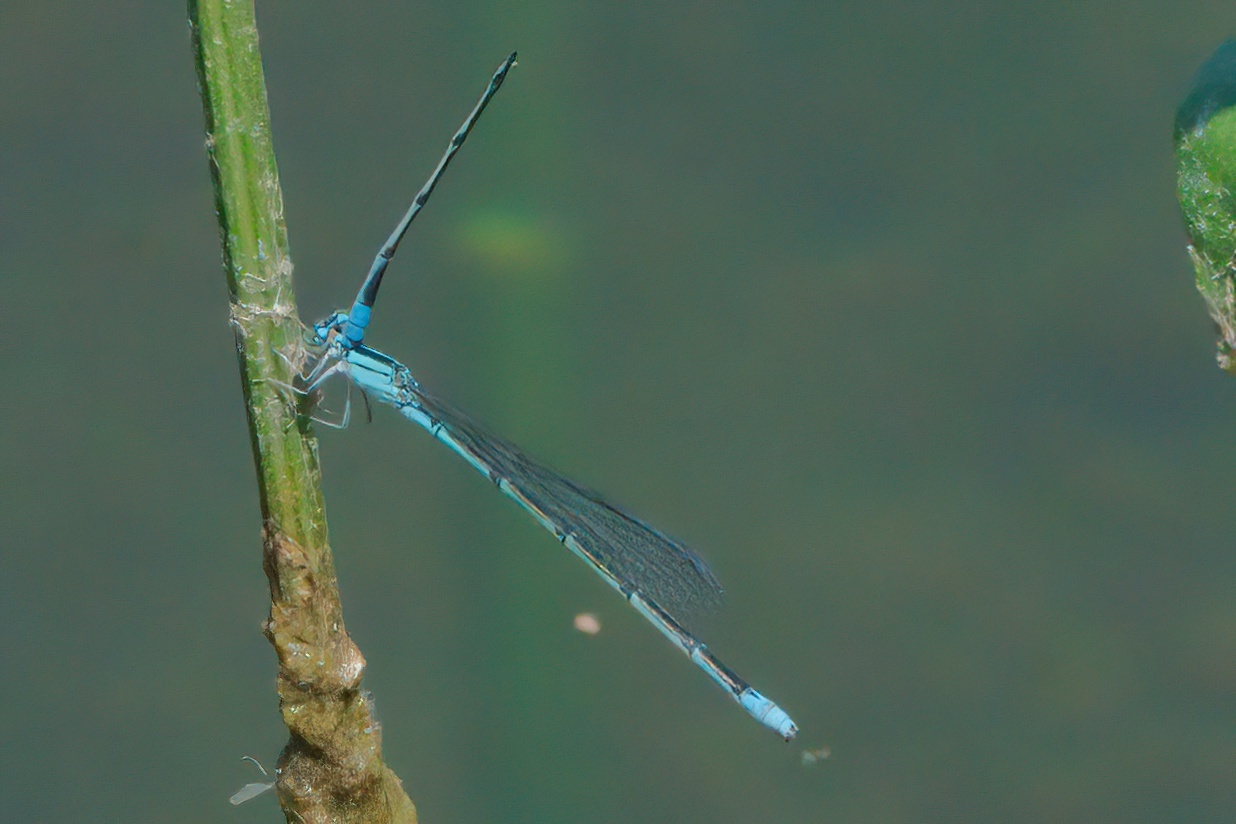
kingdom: Animalia
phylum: Arthropoda
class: Insecta
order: Odonata
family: Coenagrionidae
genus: Enallagma
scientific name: Enallagma traviatum
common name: Slender bluet
